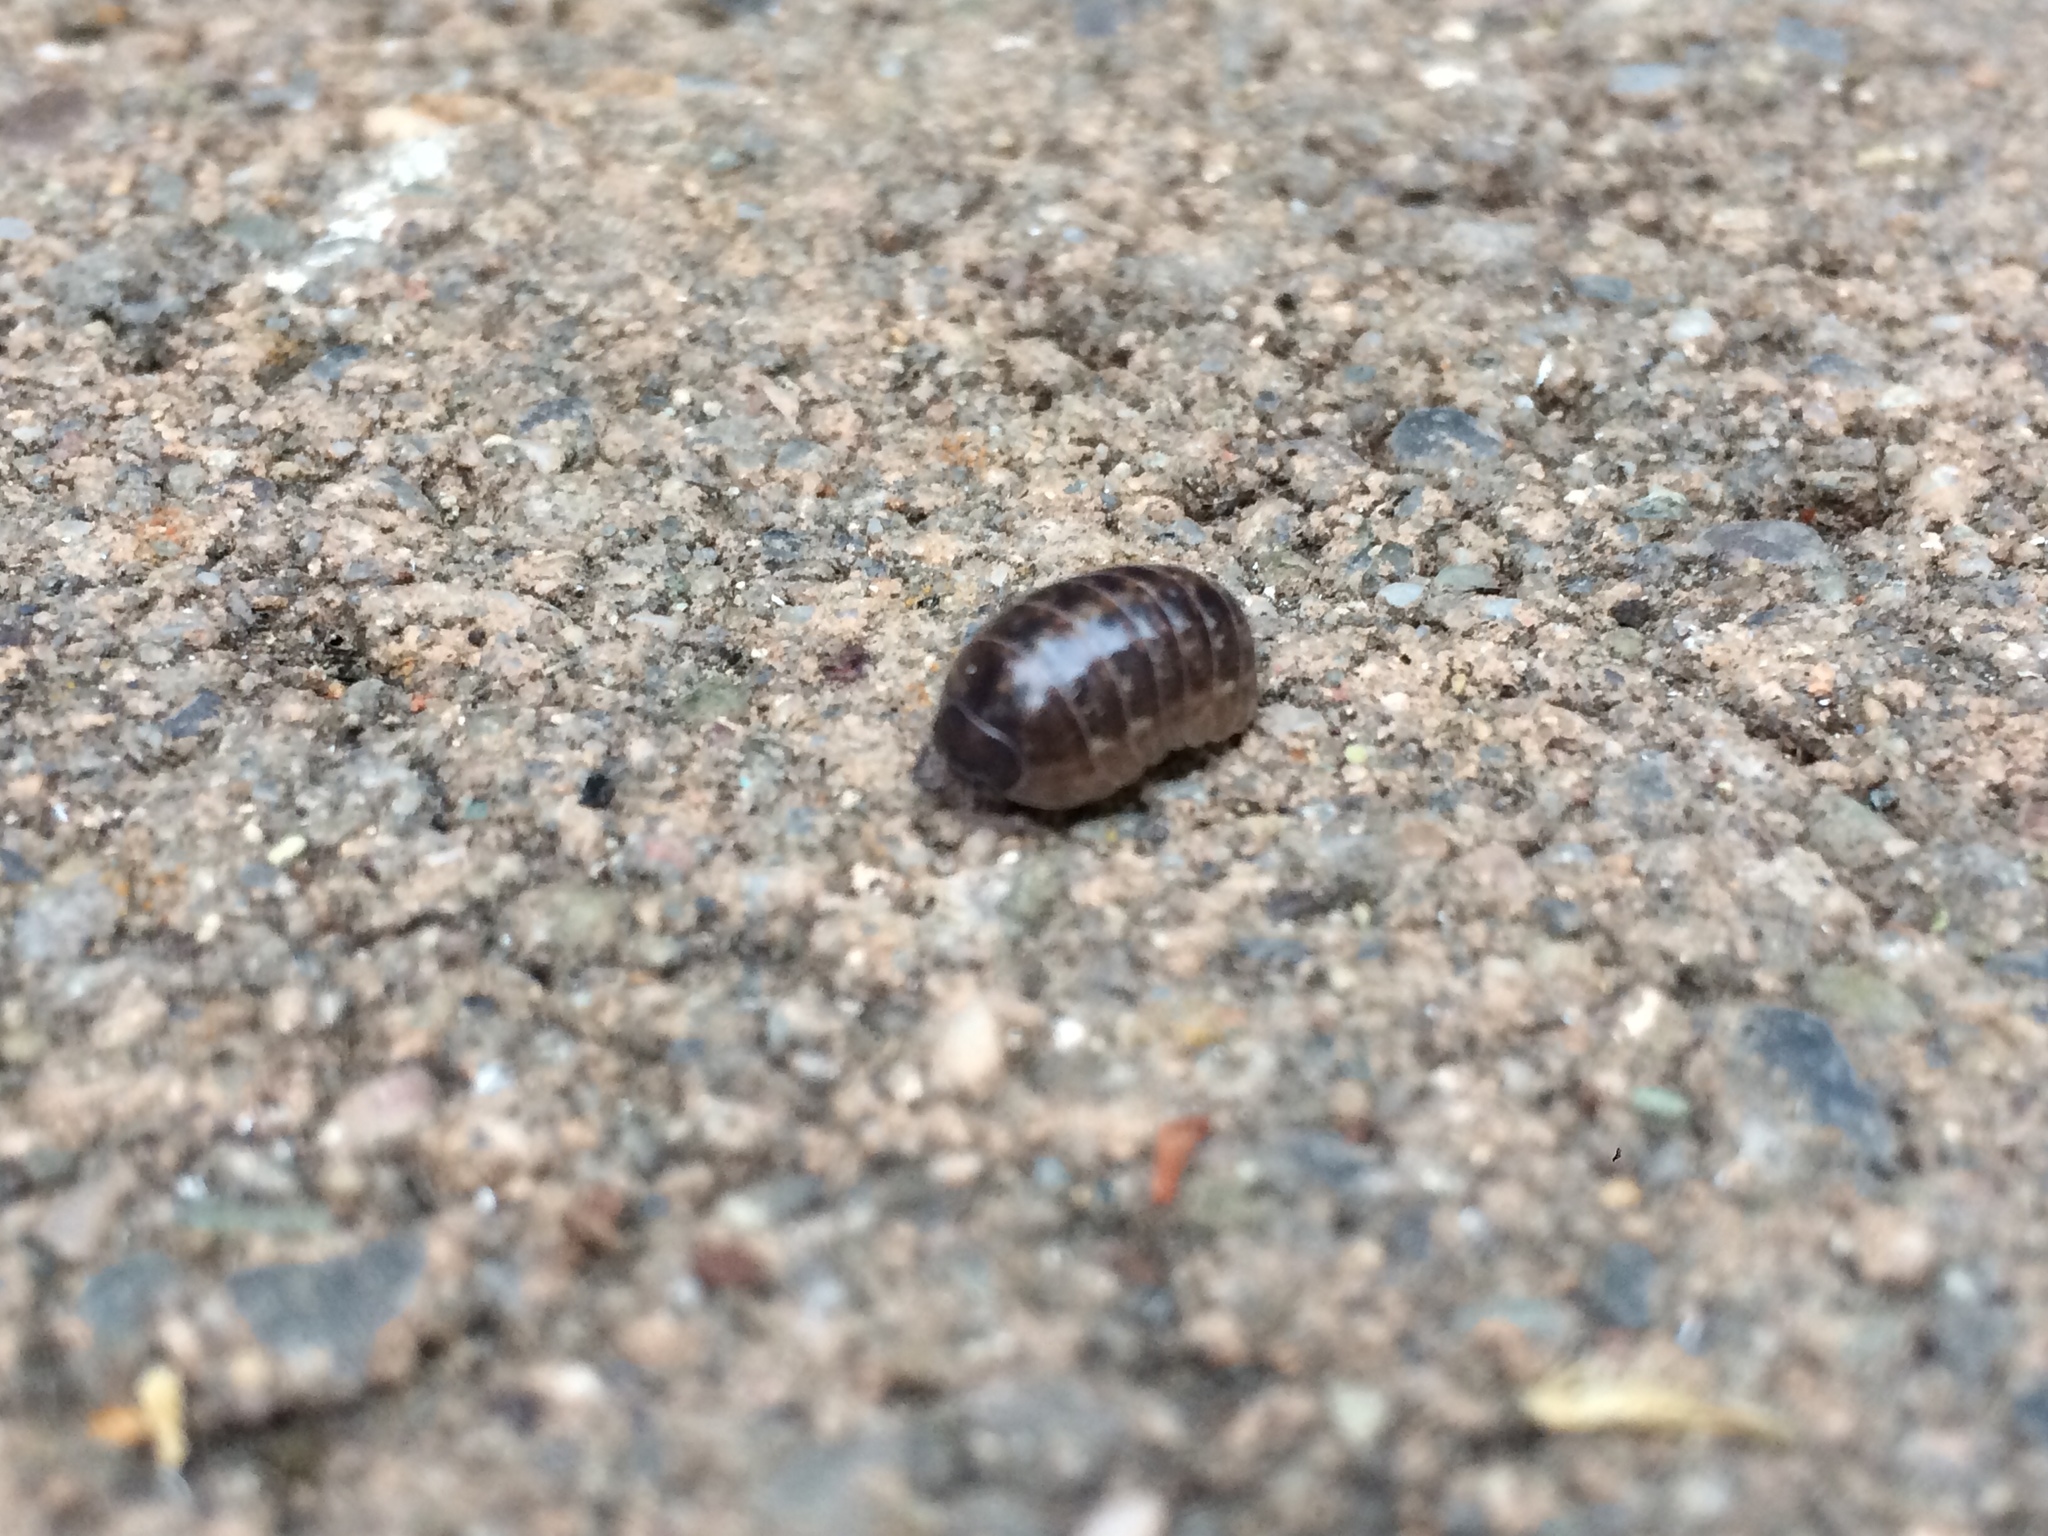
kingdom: Animalia
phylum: Arthropoda
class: Malacostraca
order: Isopoda
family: Armadillidiidae
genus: Armadillidium
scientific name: Armadillidium vulgare
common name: Common pill woodlouse
